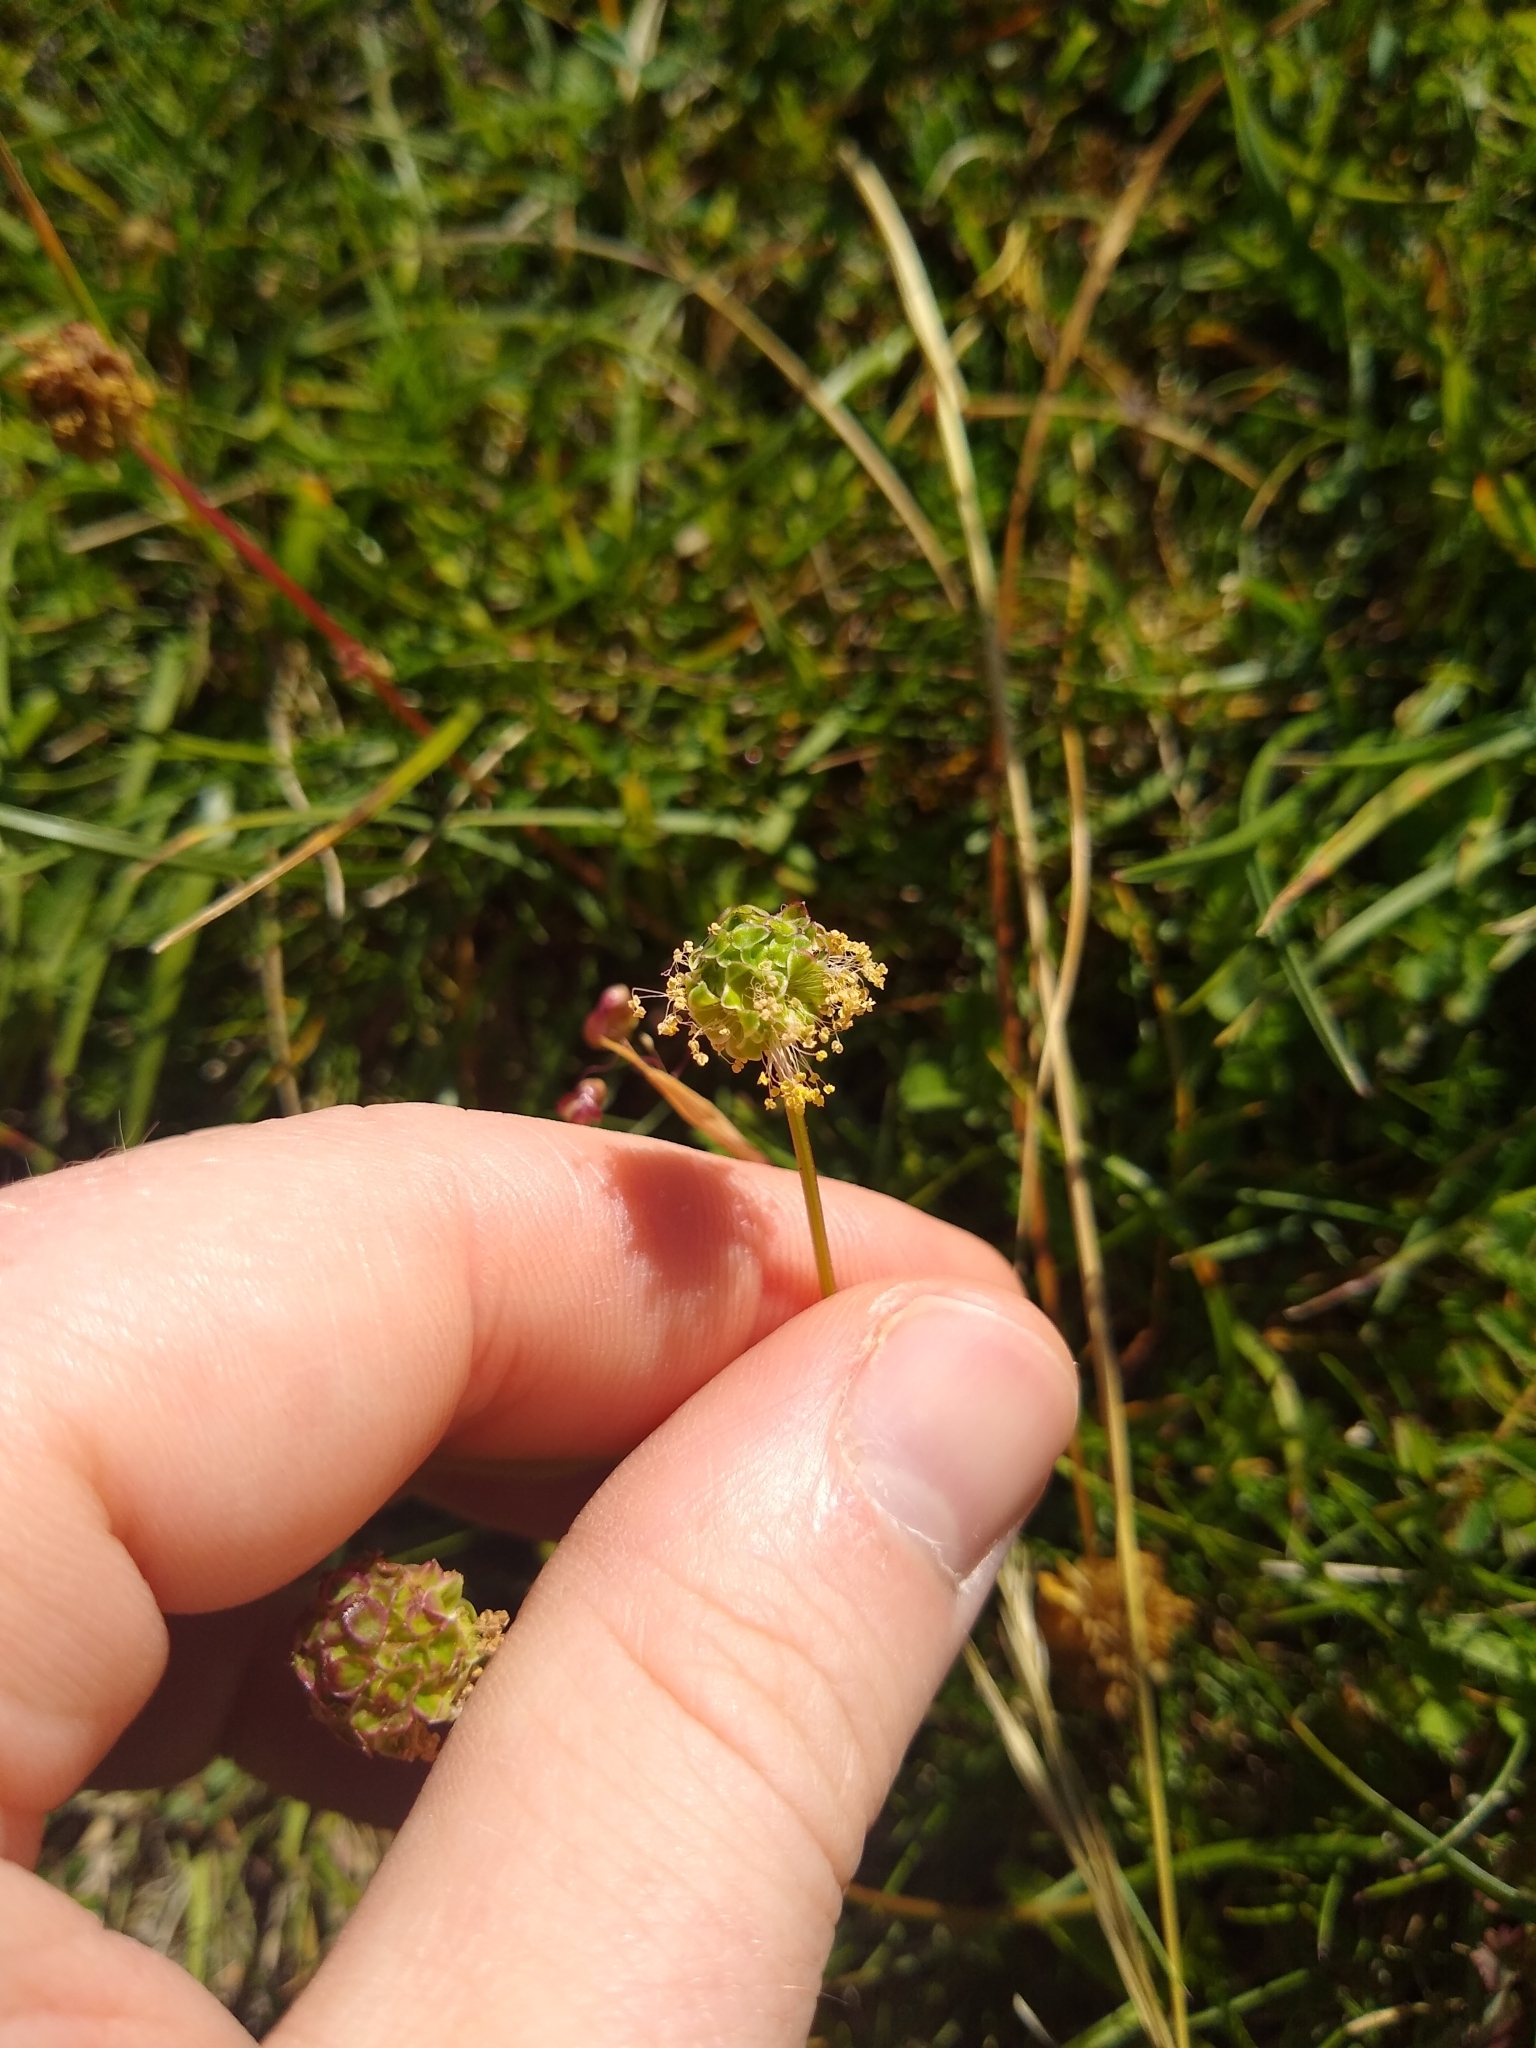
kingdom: Plantae
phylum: Tracheophyta
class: Magnoliopsida
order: Rosales
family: Rosaceae
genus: Poterium
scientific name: Poterium sanguisorba
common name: Salad burnet
